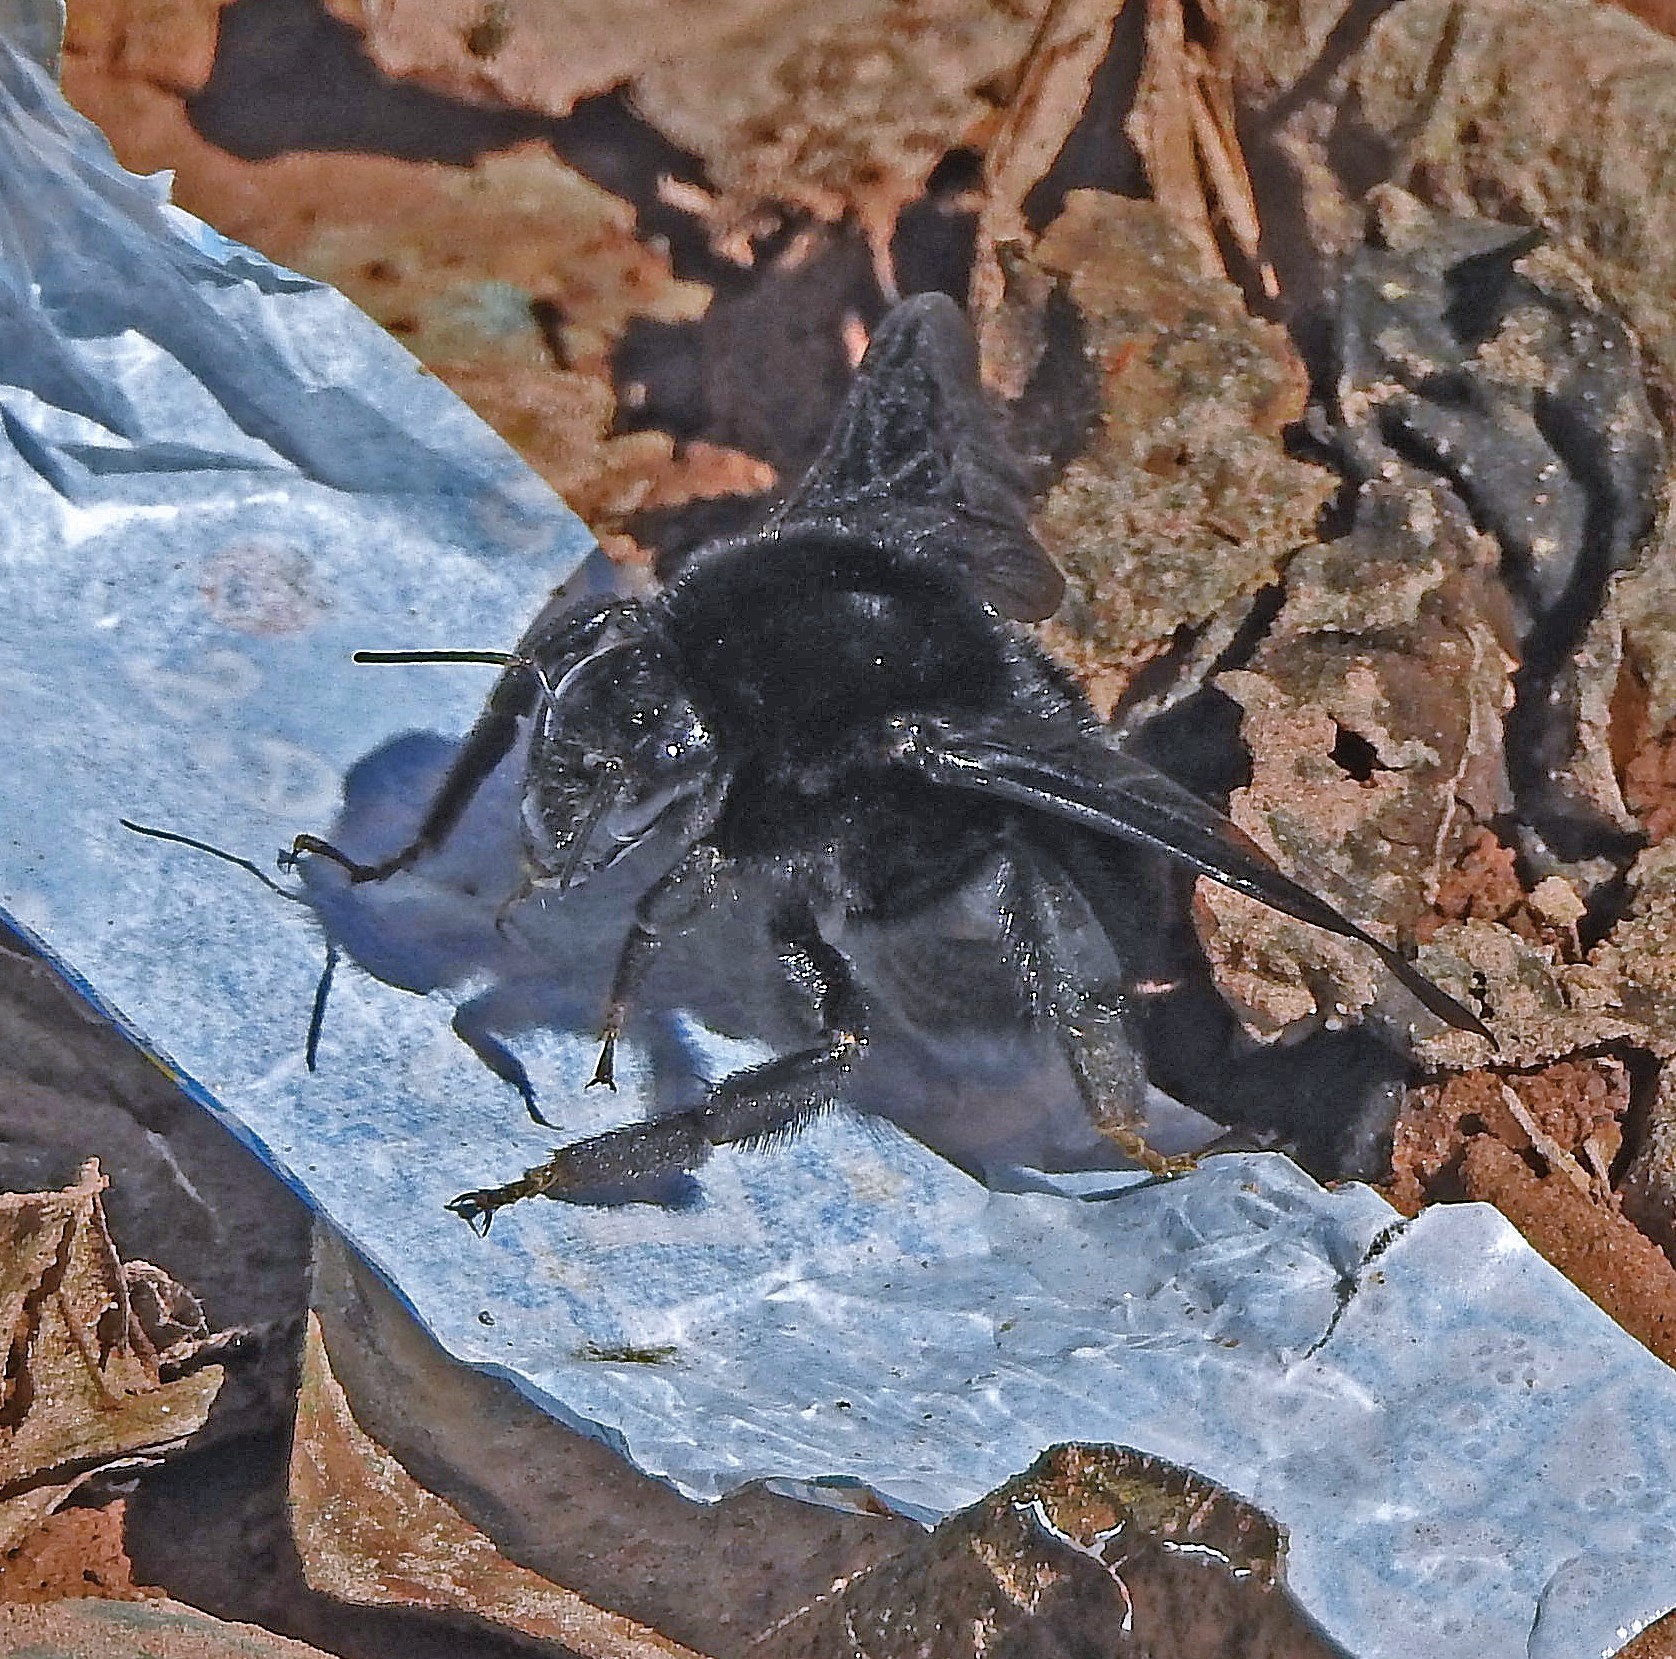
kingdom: Animalia
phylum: Arthropoda
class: Insecta
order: Hymenoptera
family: Apidae
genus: Bombus
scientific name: Bombus morio
